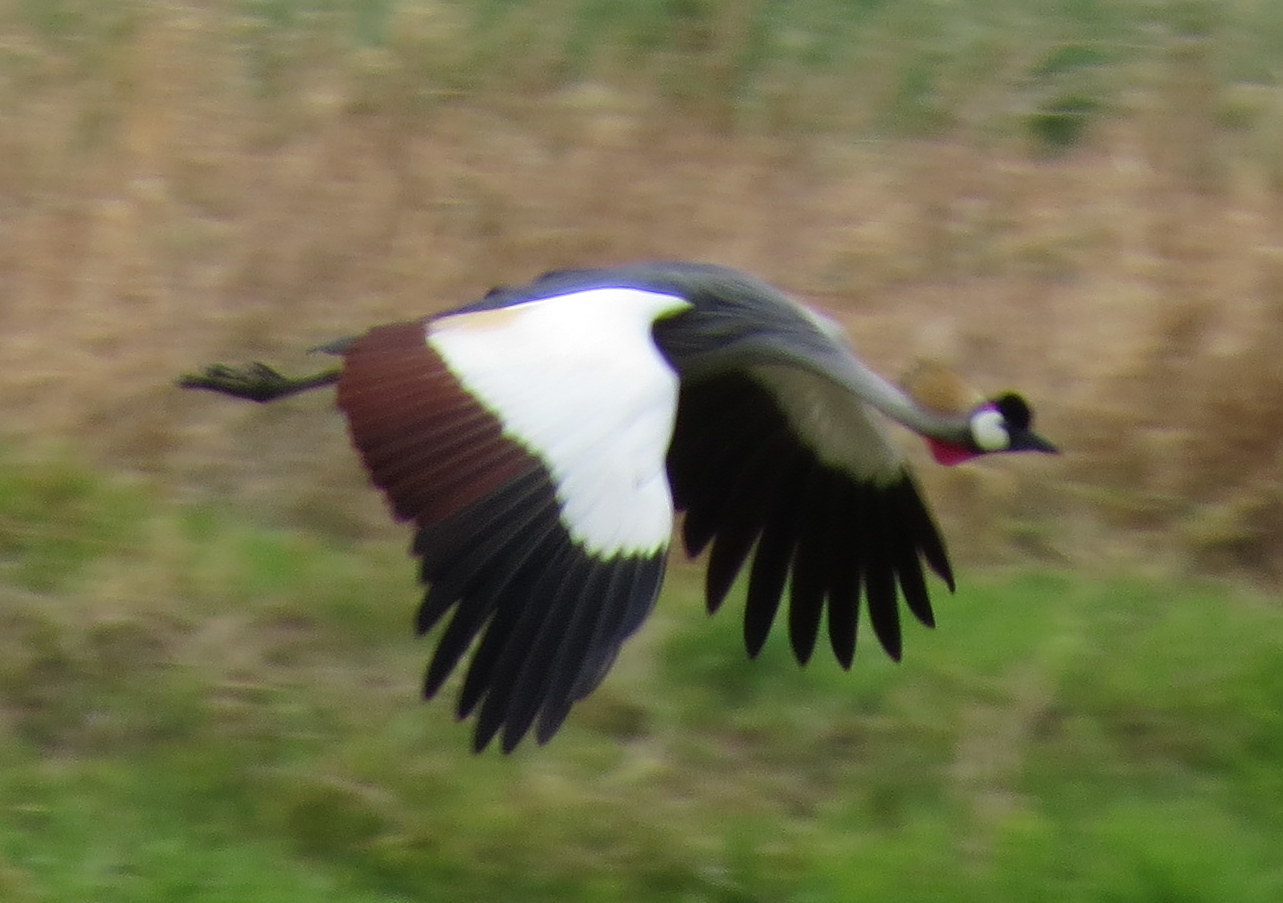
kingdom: Animalia
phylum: Chordata
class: Aves
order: Gruiformes
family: Gruidae
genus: Balearica
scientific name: Balearica regulorum
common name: Grey crowned crane
